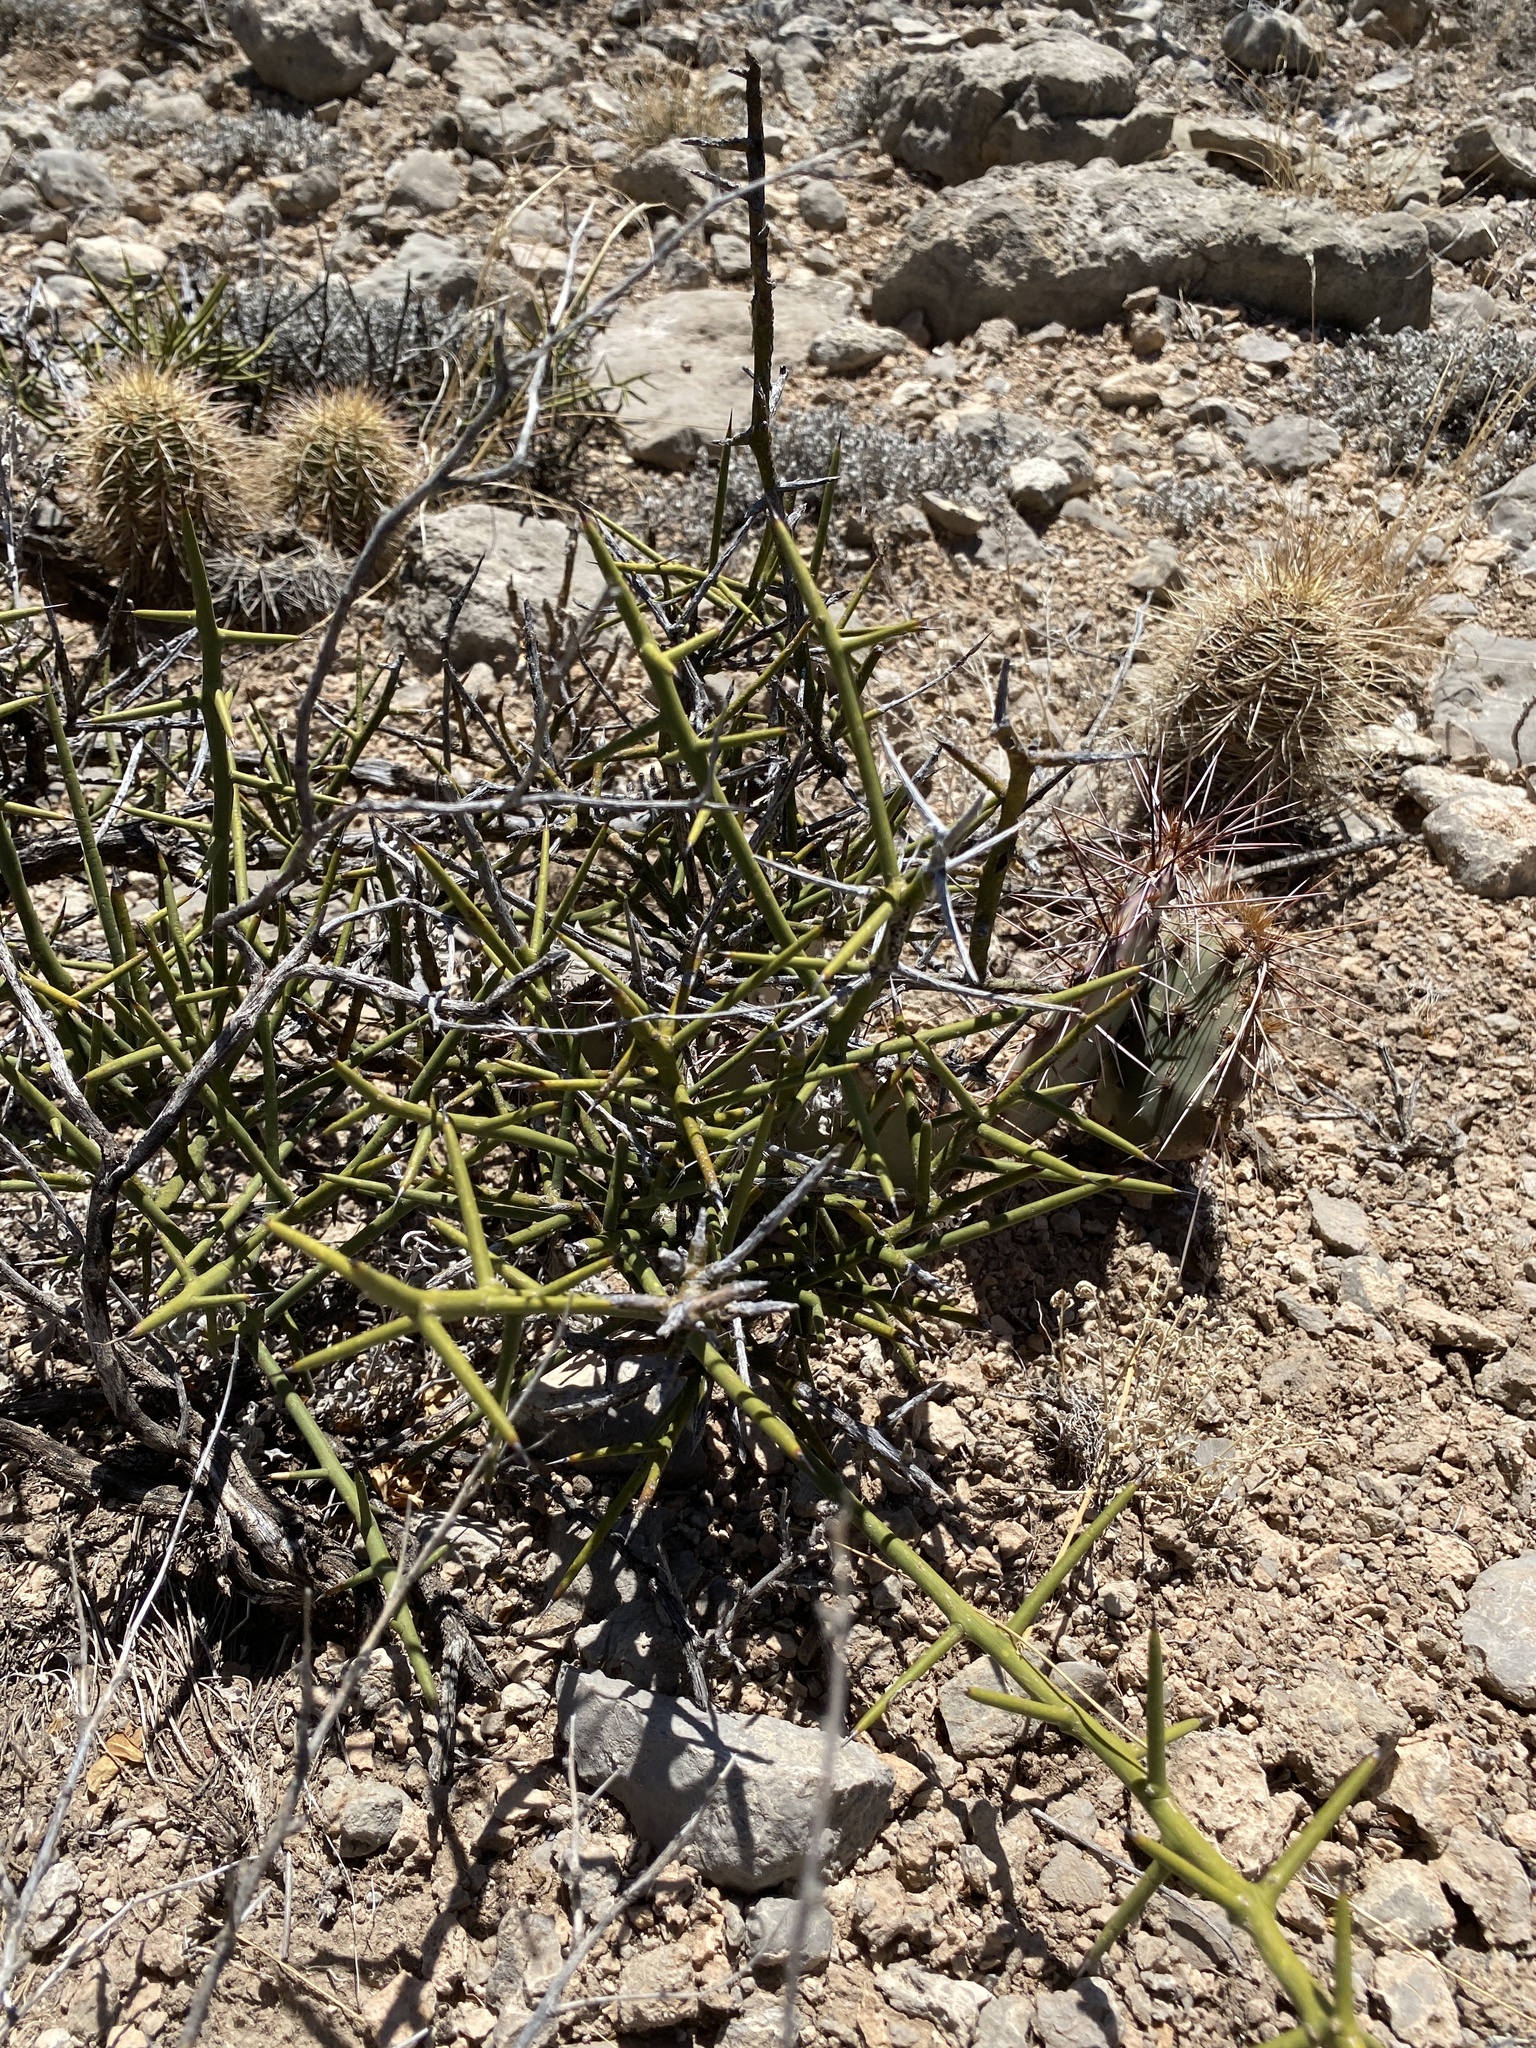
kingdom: Plantae
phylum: Tracheophyta
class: Magnoliopsida
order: Brassicales
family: Koeberliniaceae
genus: Koeberlinia
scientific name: Koeberlinia spinosa
